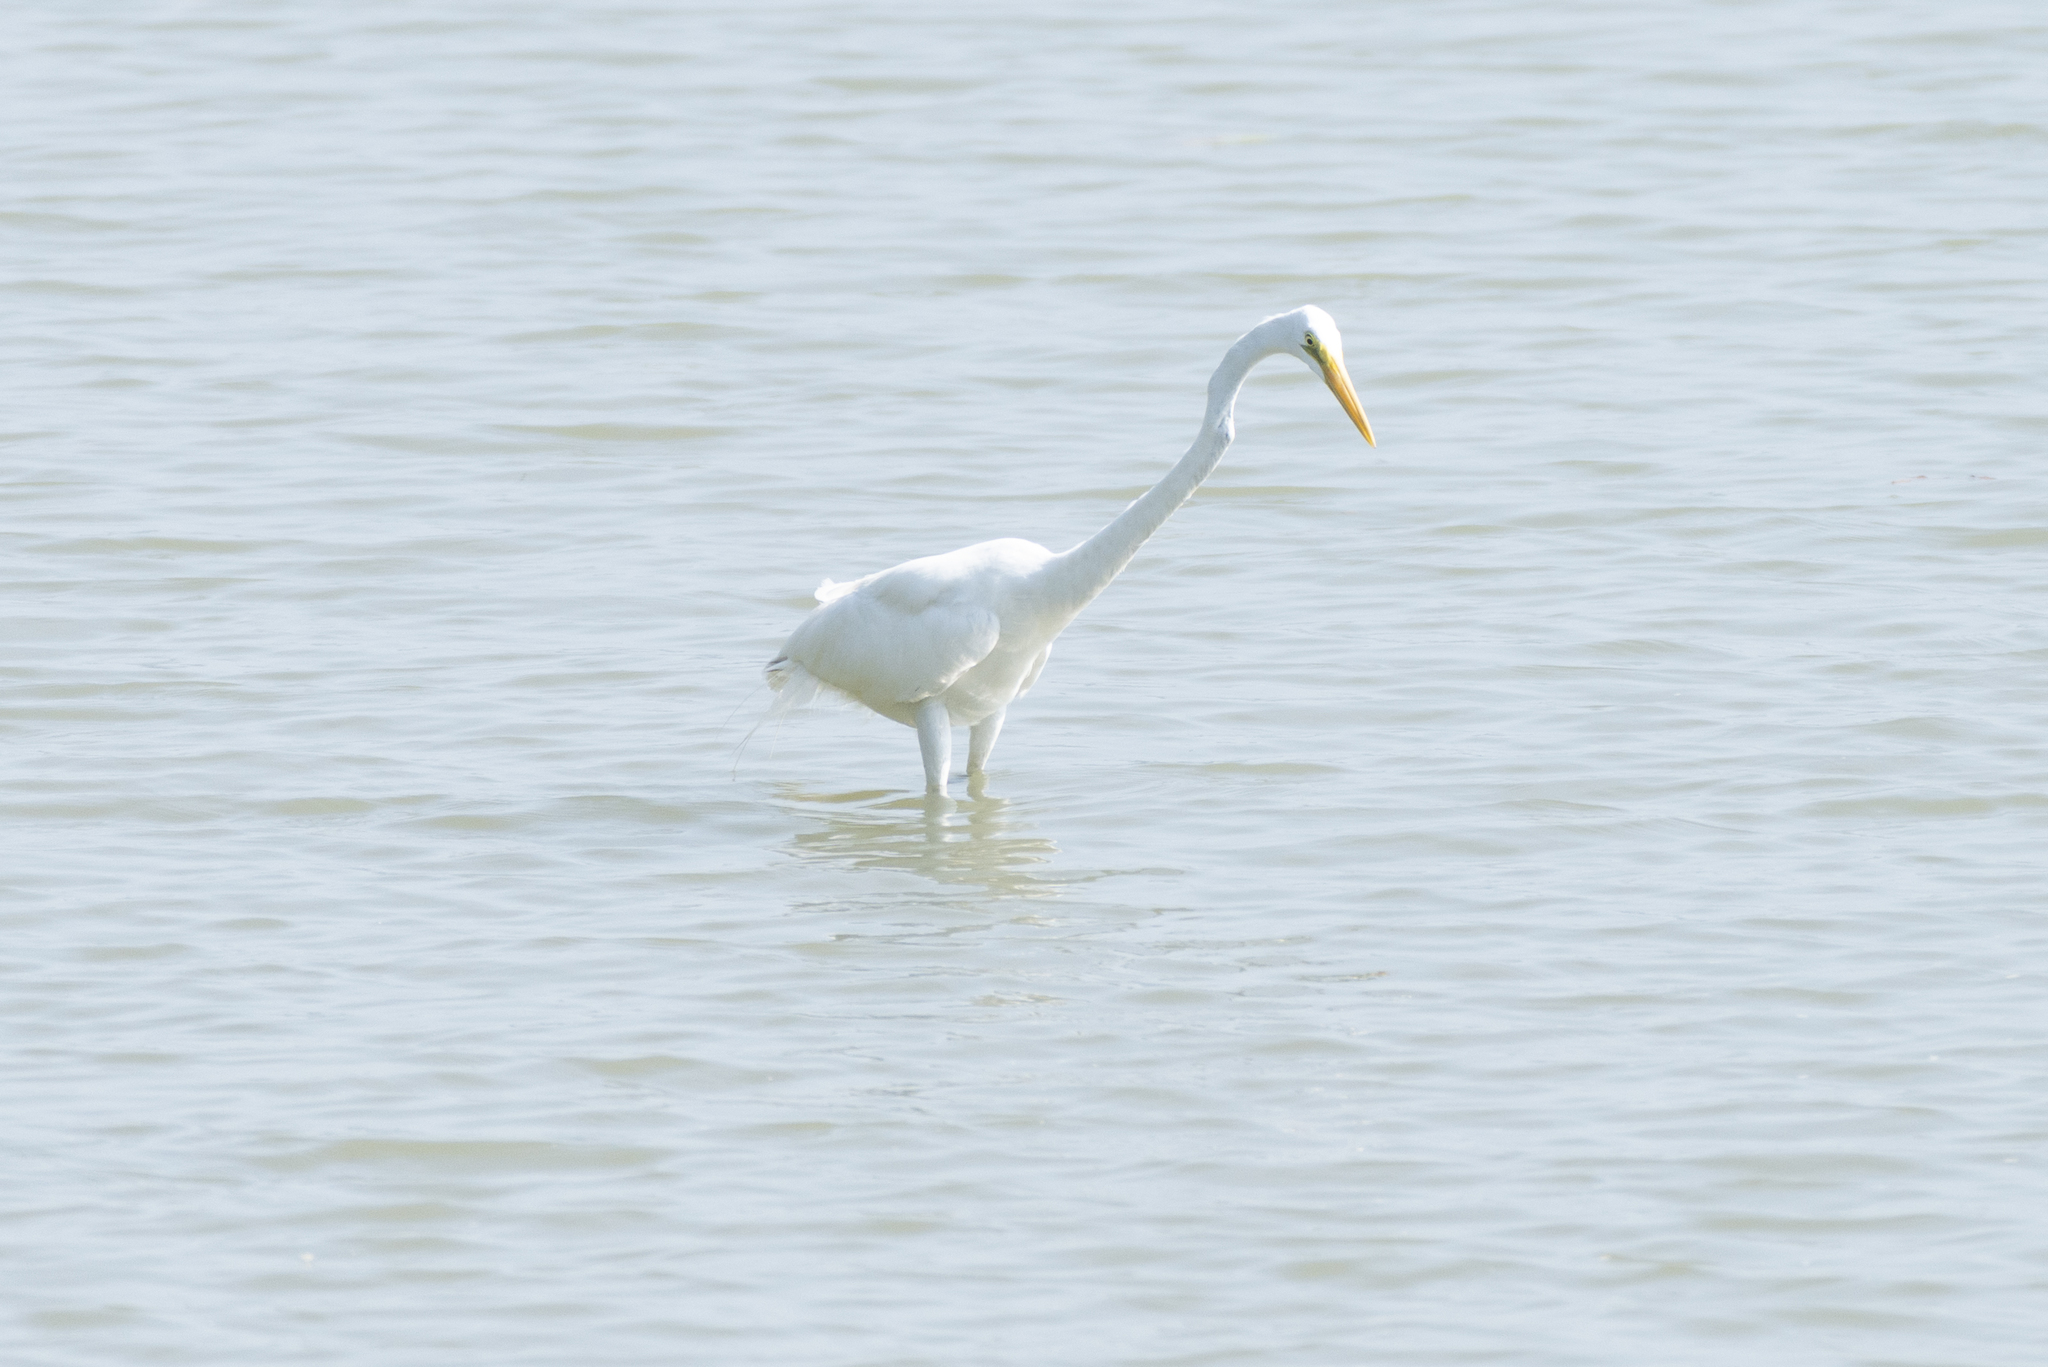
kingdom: Animalia
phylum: Chordata
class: Aves
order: Pelecaniformes
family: Ardeidae
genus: Ardea
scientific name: Ardea alba
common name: Great egret
